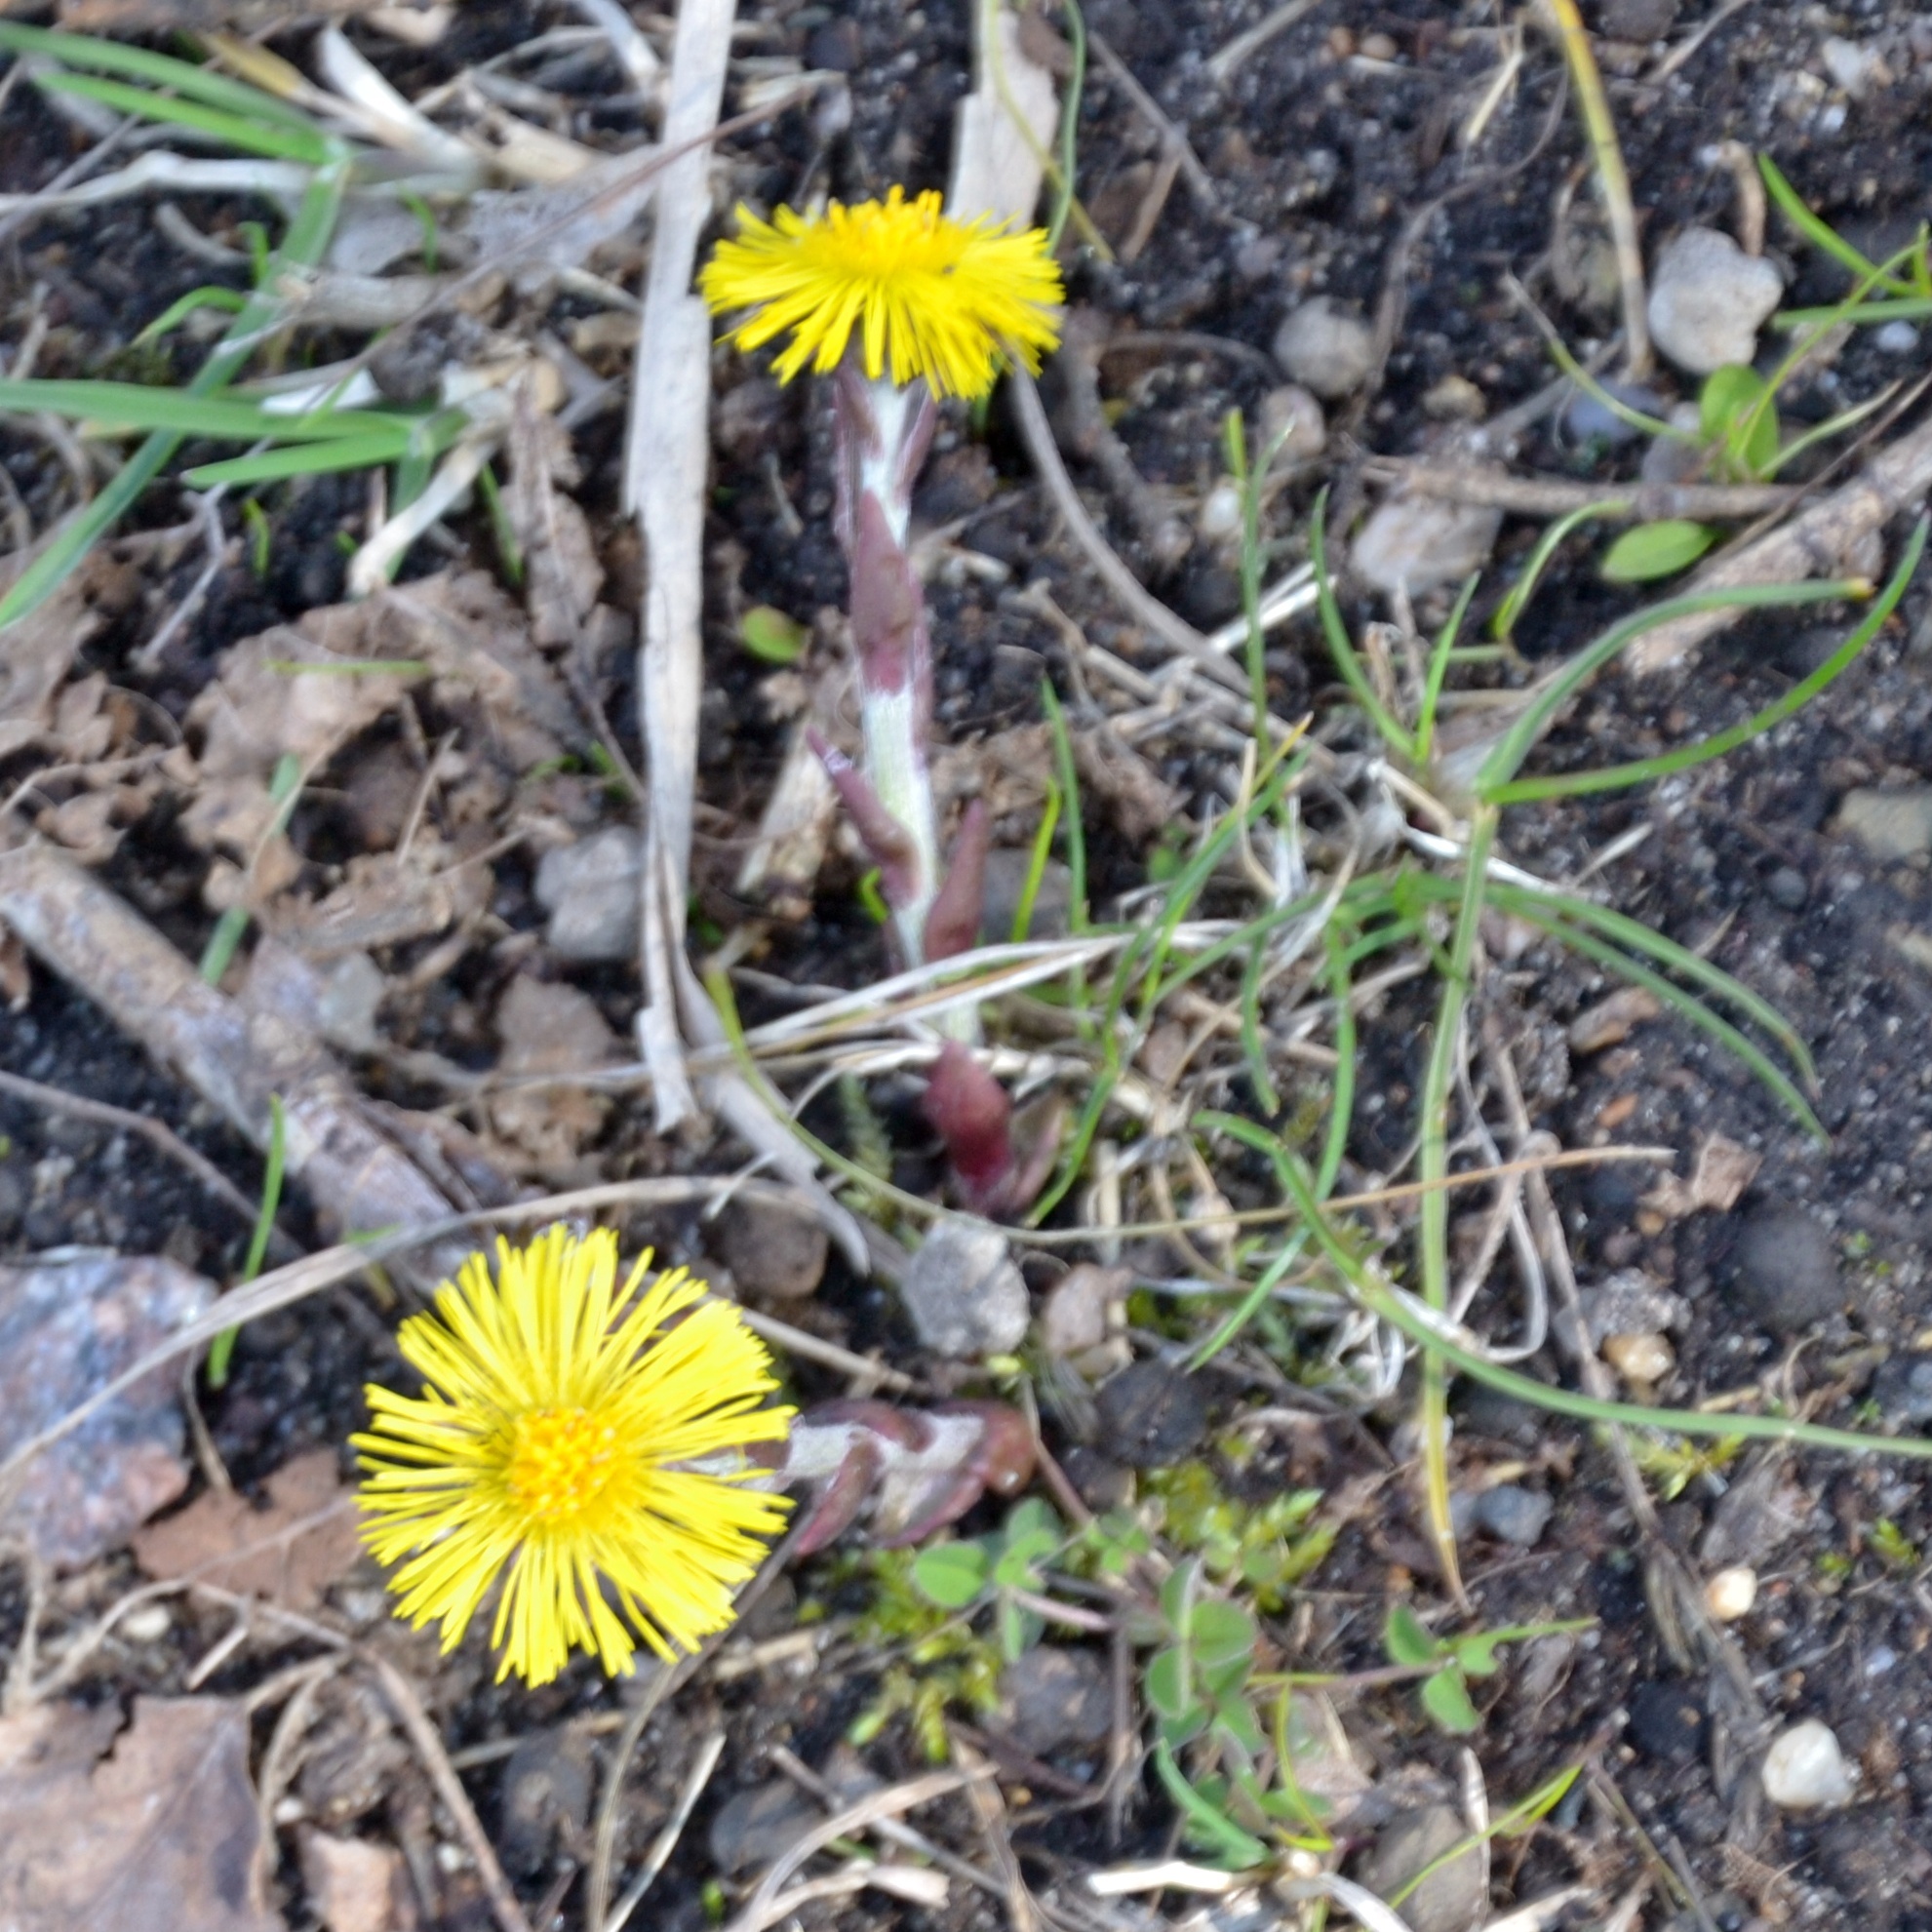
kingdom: Plantae
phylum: Tracheophyta
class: Magnoliopsida
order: Asterales
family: Asteraceae
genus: Tussilago
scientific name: Tussilago farfara
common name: Coltsfoot
